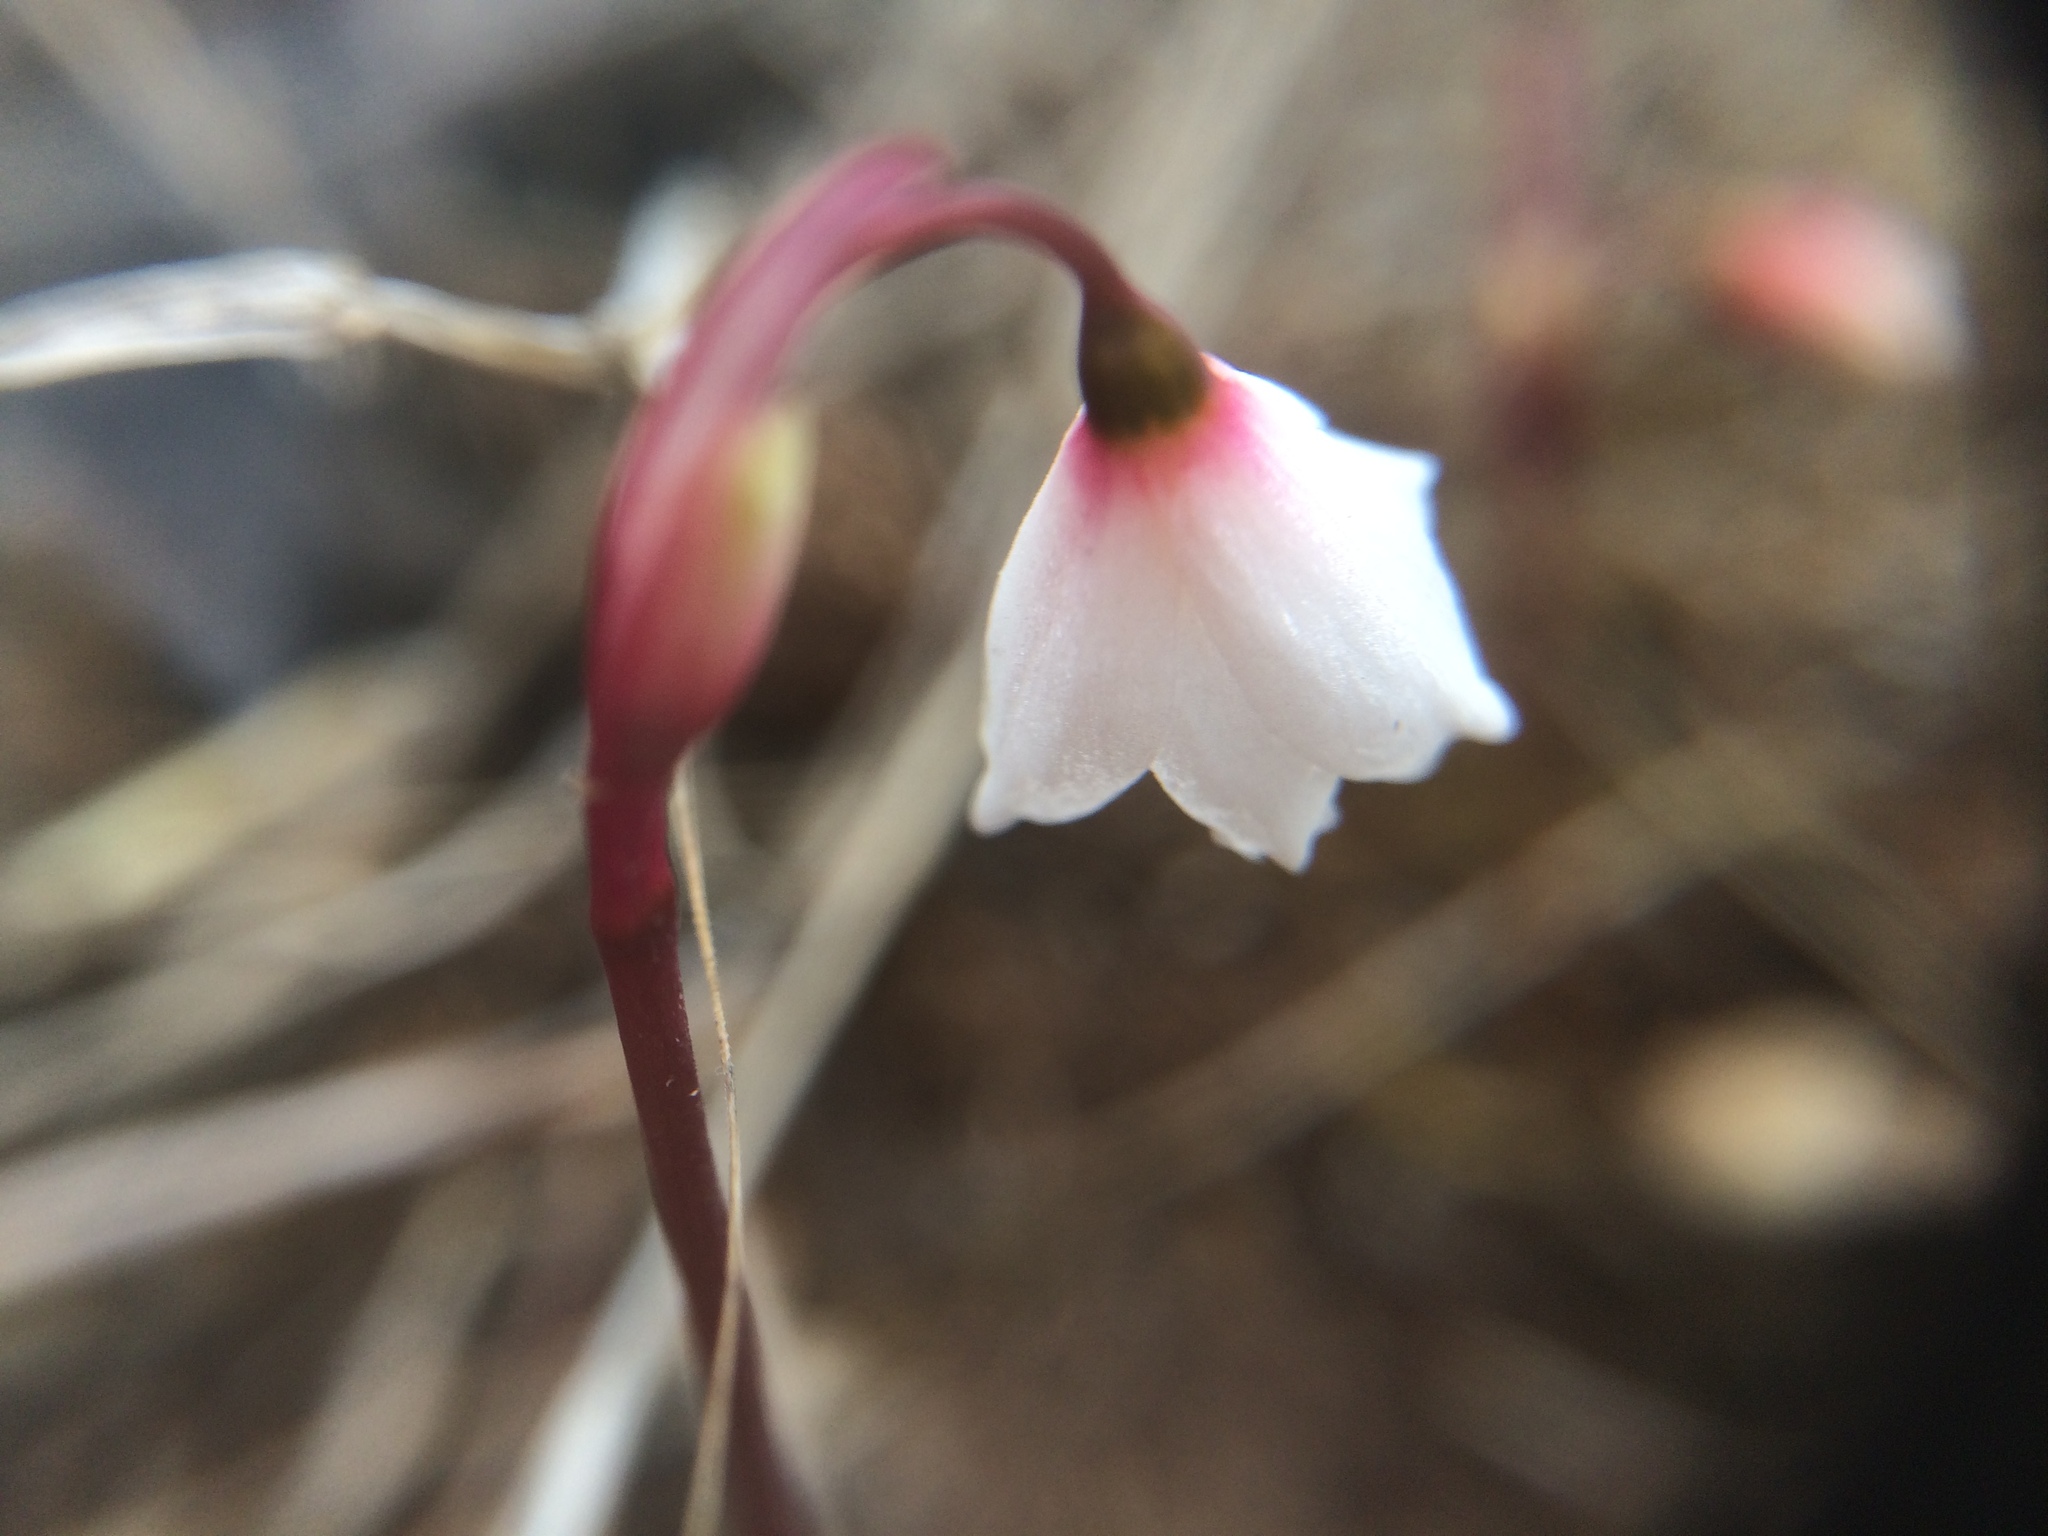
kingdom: Plantae
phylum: Tracheophyta
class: Liliopsida
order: Asparagales
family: Amaryllidaceae
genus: Acis
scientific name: Acis autumnalis
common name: Autumn snowflake
